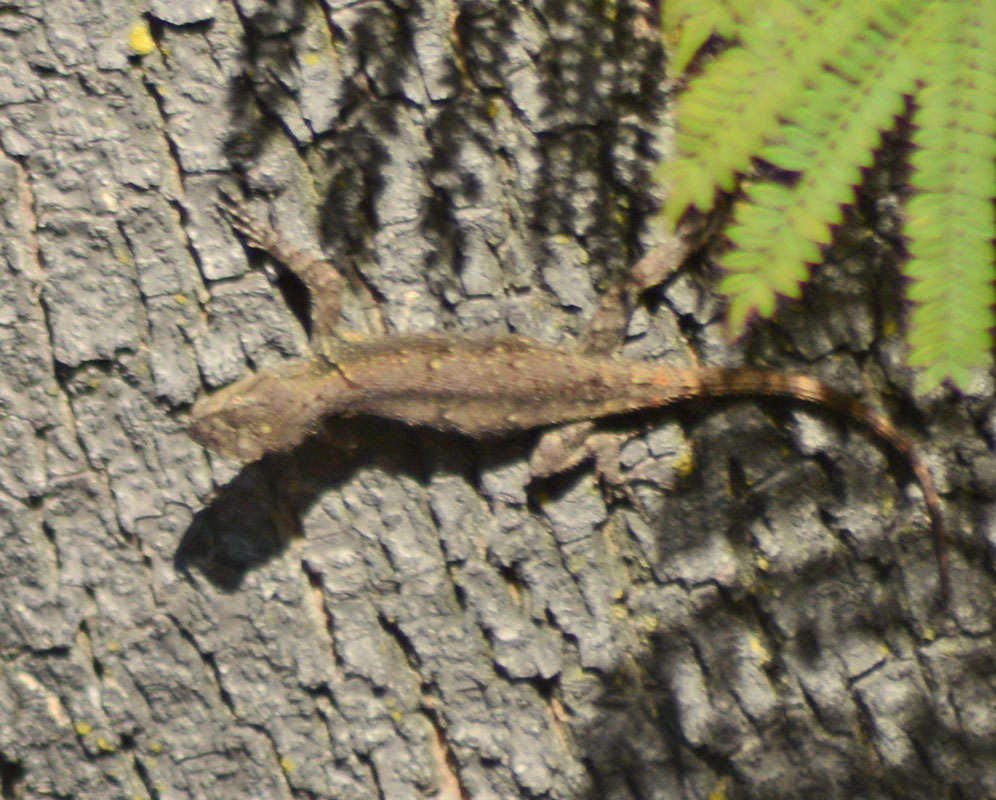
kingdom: Animalia
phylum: Chordata
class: Squamata
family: Phrynosomatidae
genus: Sceloporus
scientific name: Sceloporus grammicus
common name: Mesquite lizard
